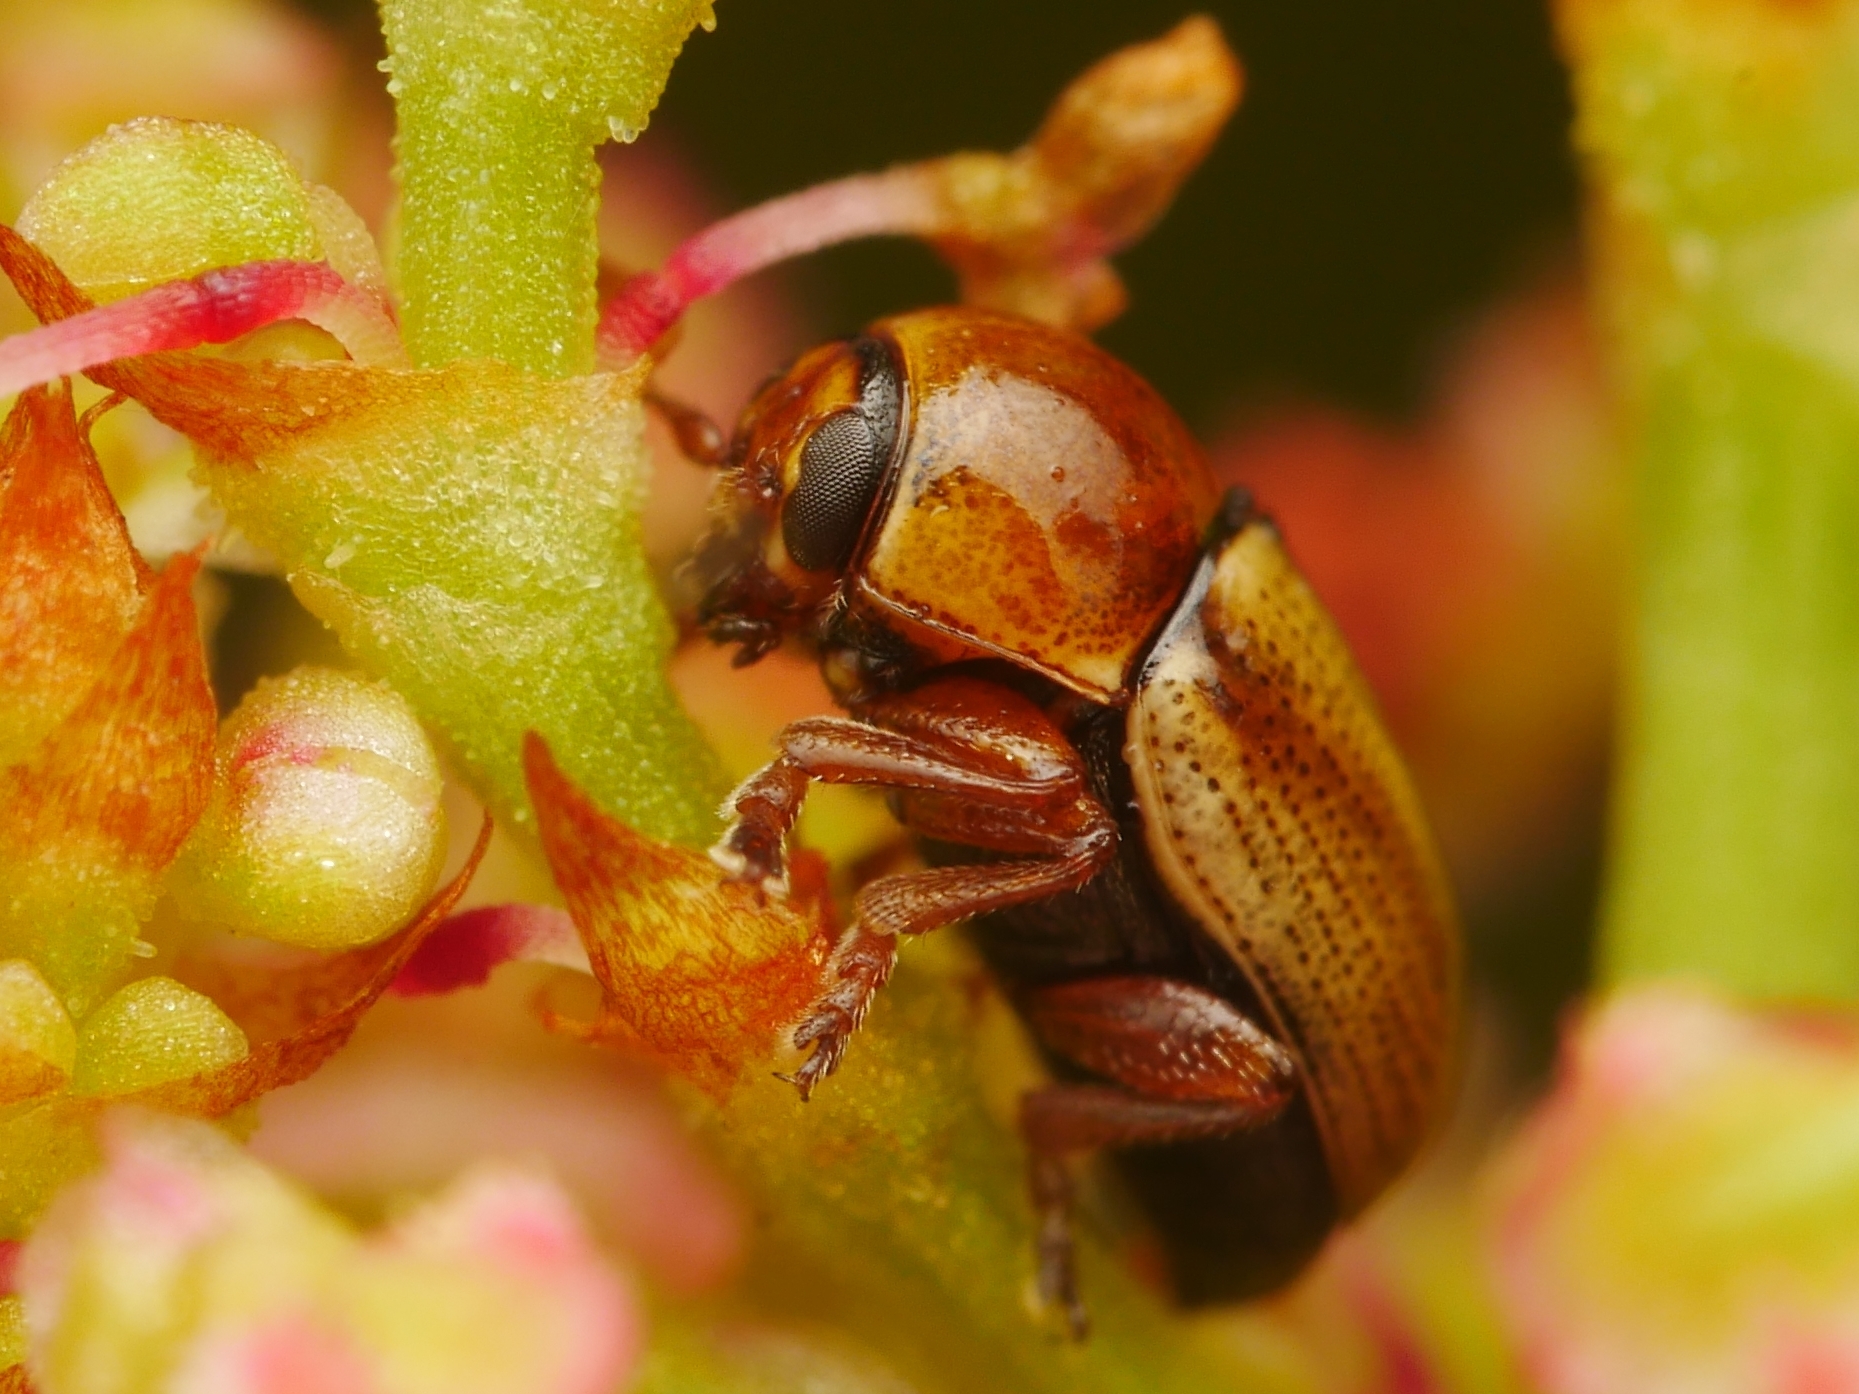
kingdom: Animalia
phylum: Arthropoda
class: Insecta
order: Coleoptera
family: Chrysomelidae
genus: Cryptocephalus
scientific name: Cryptocephalus fulvus
